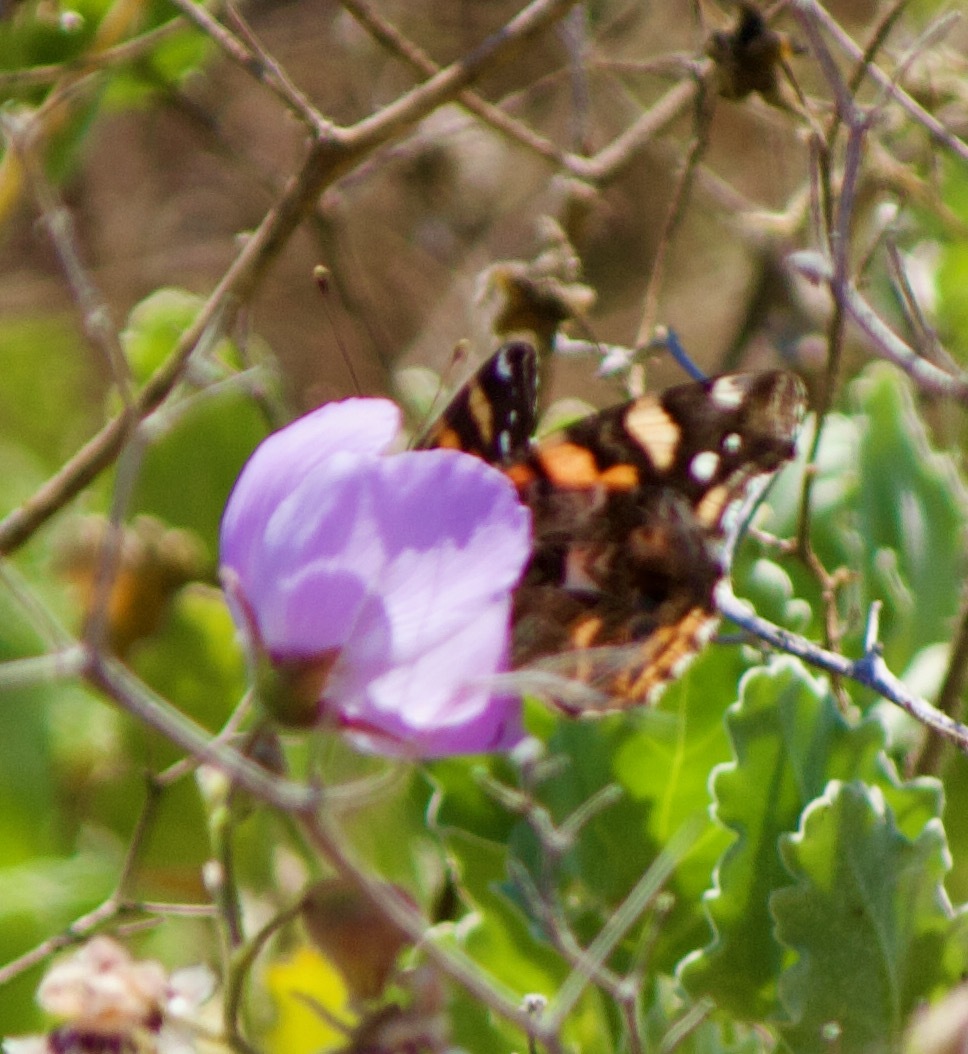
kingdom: Animalia
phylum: Arthropoda
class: Insecta
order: Lepidoptera
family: Nymphalidae
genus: Vanessa
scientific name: Vanessa carye
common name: Subtropical lady
